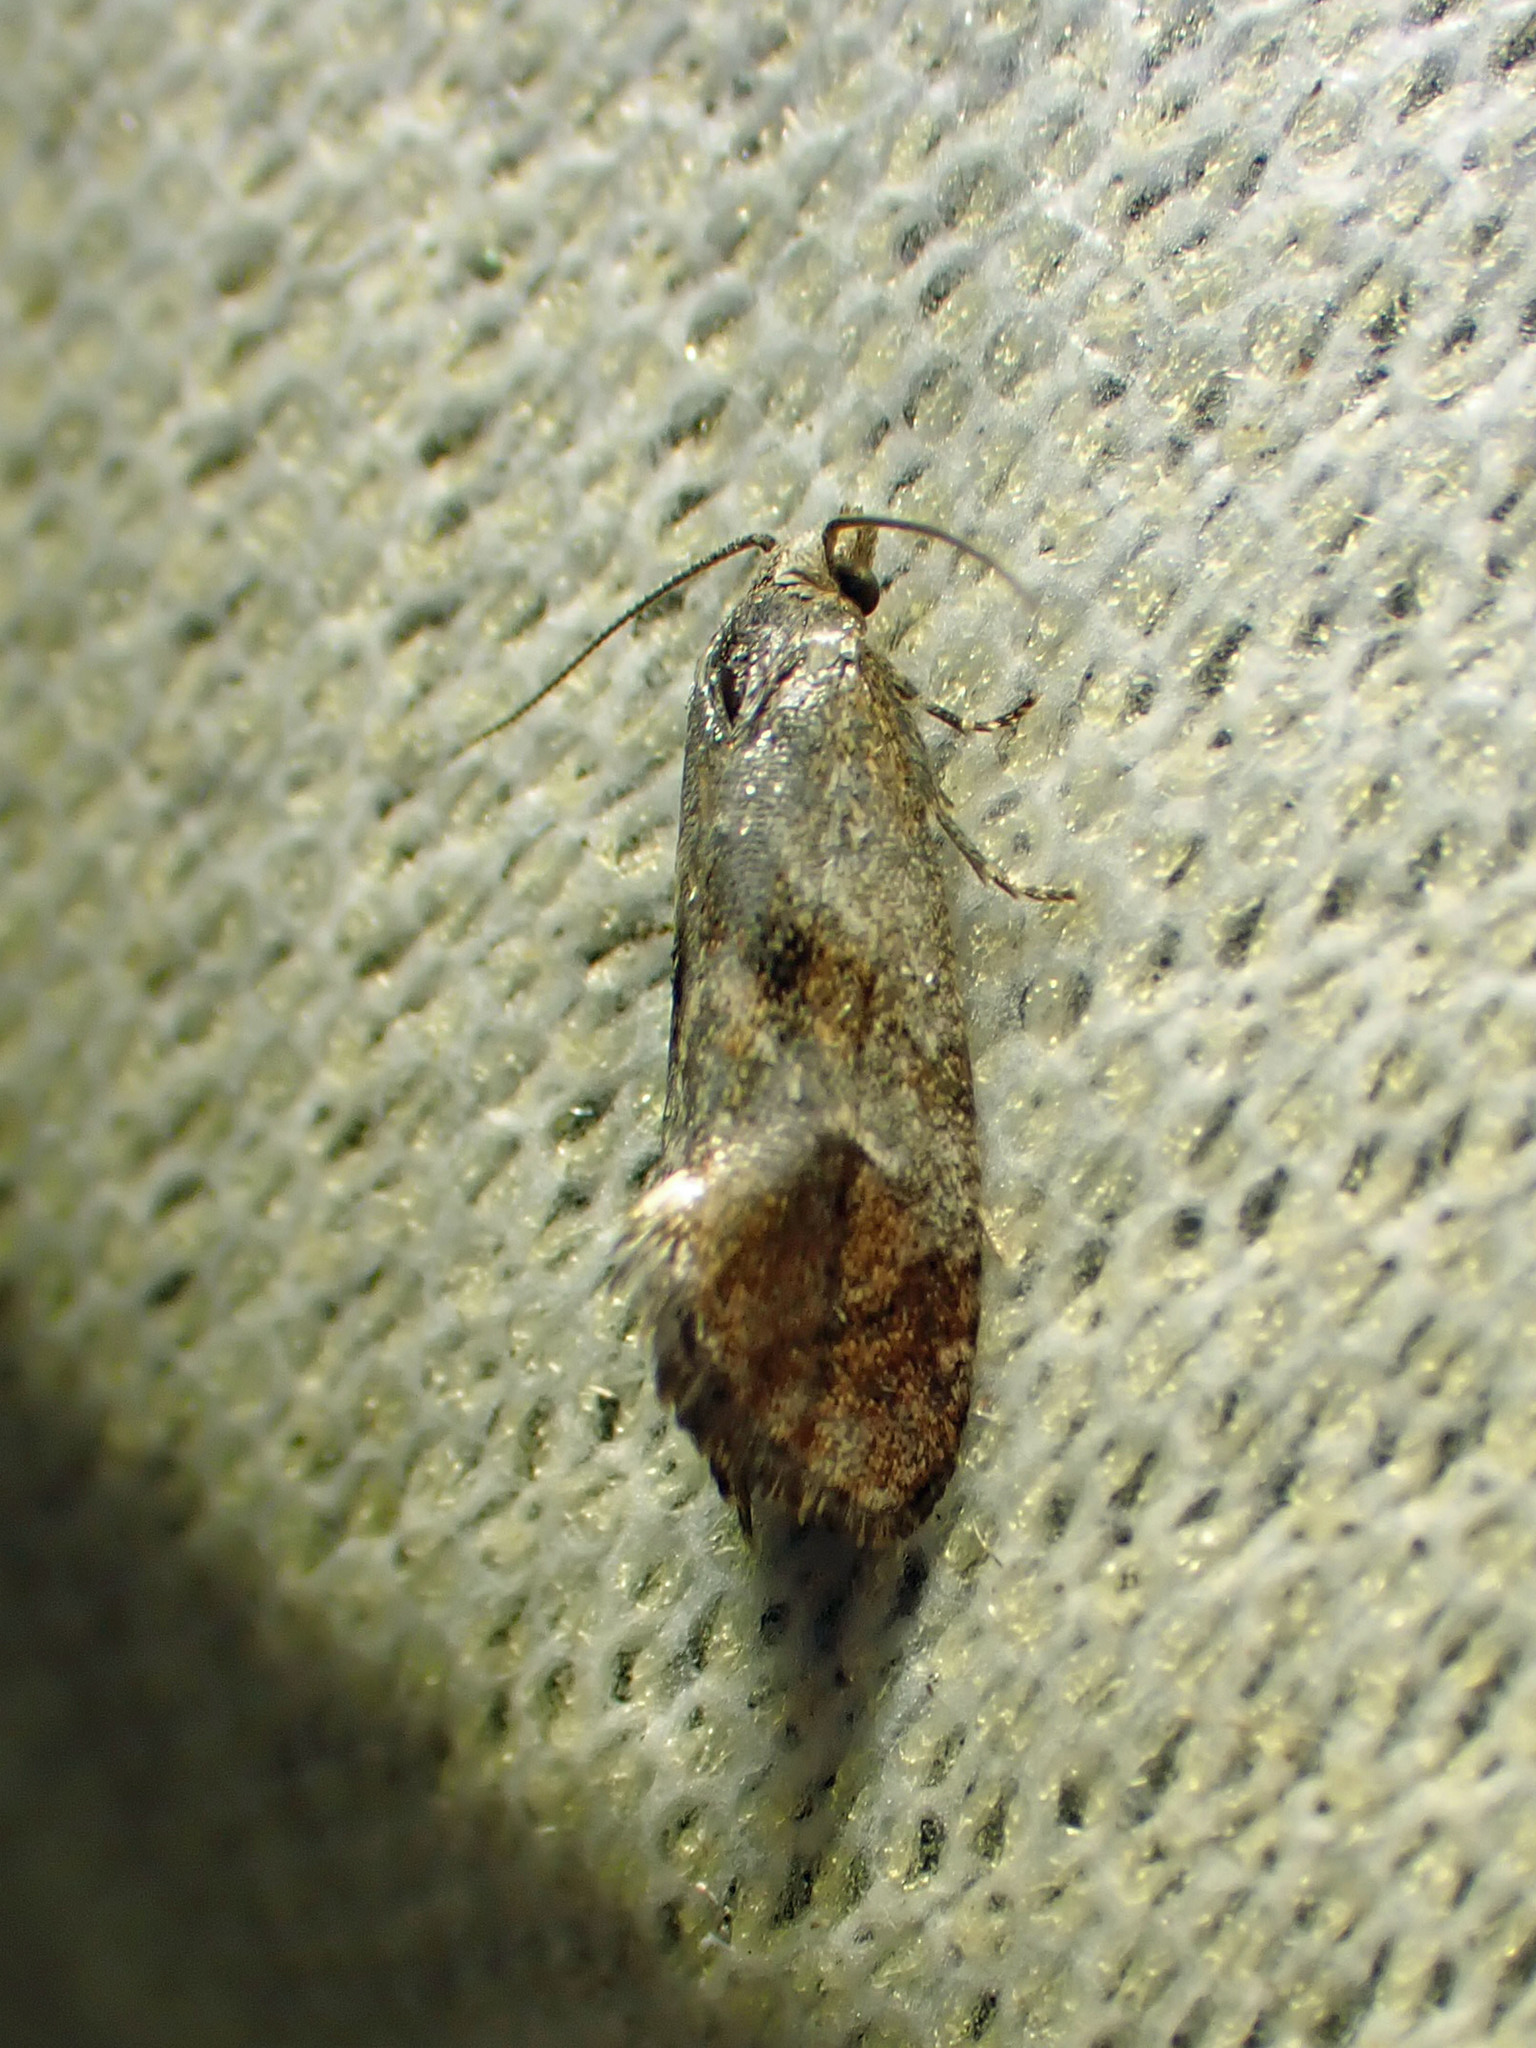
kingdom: Animalia
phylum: Arthropoda
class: Insecta
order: Lepidoptera
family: Tortricidae
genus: Cochylis
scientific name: Cochylis Cochylichroa temerana
